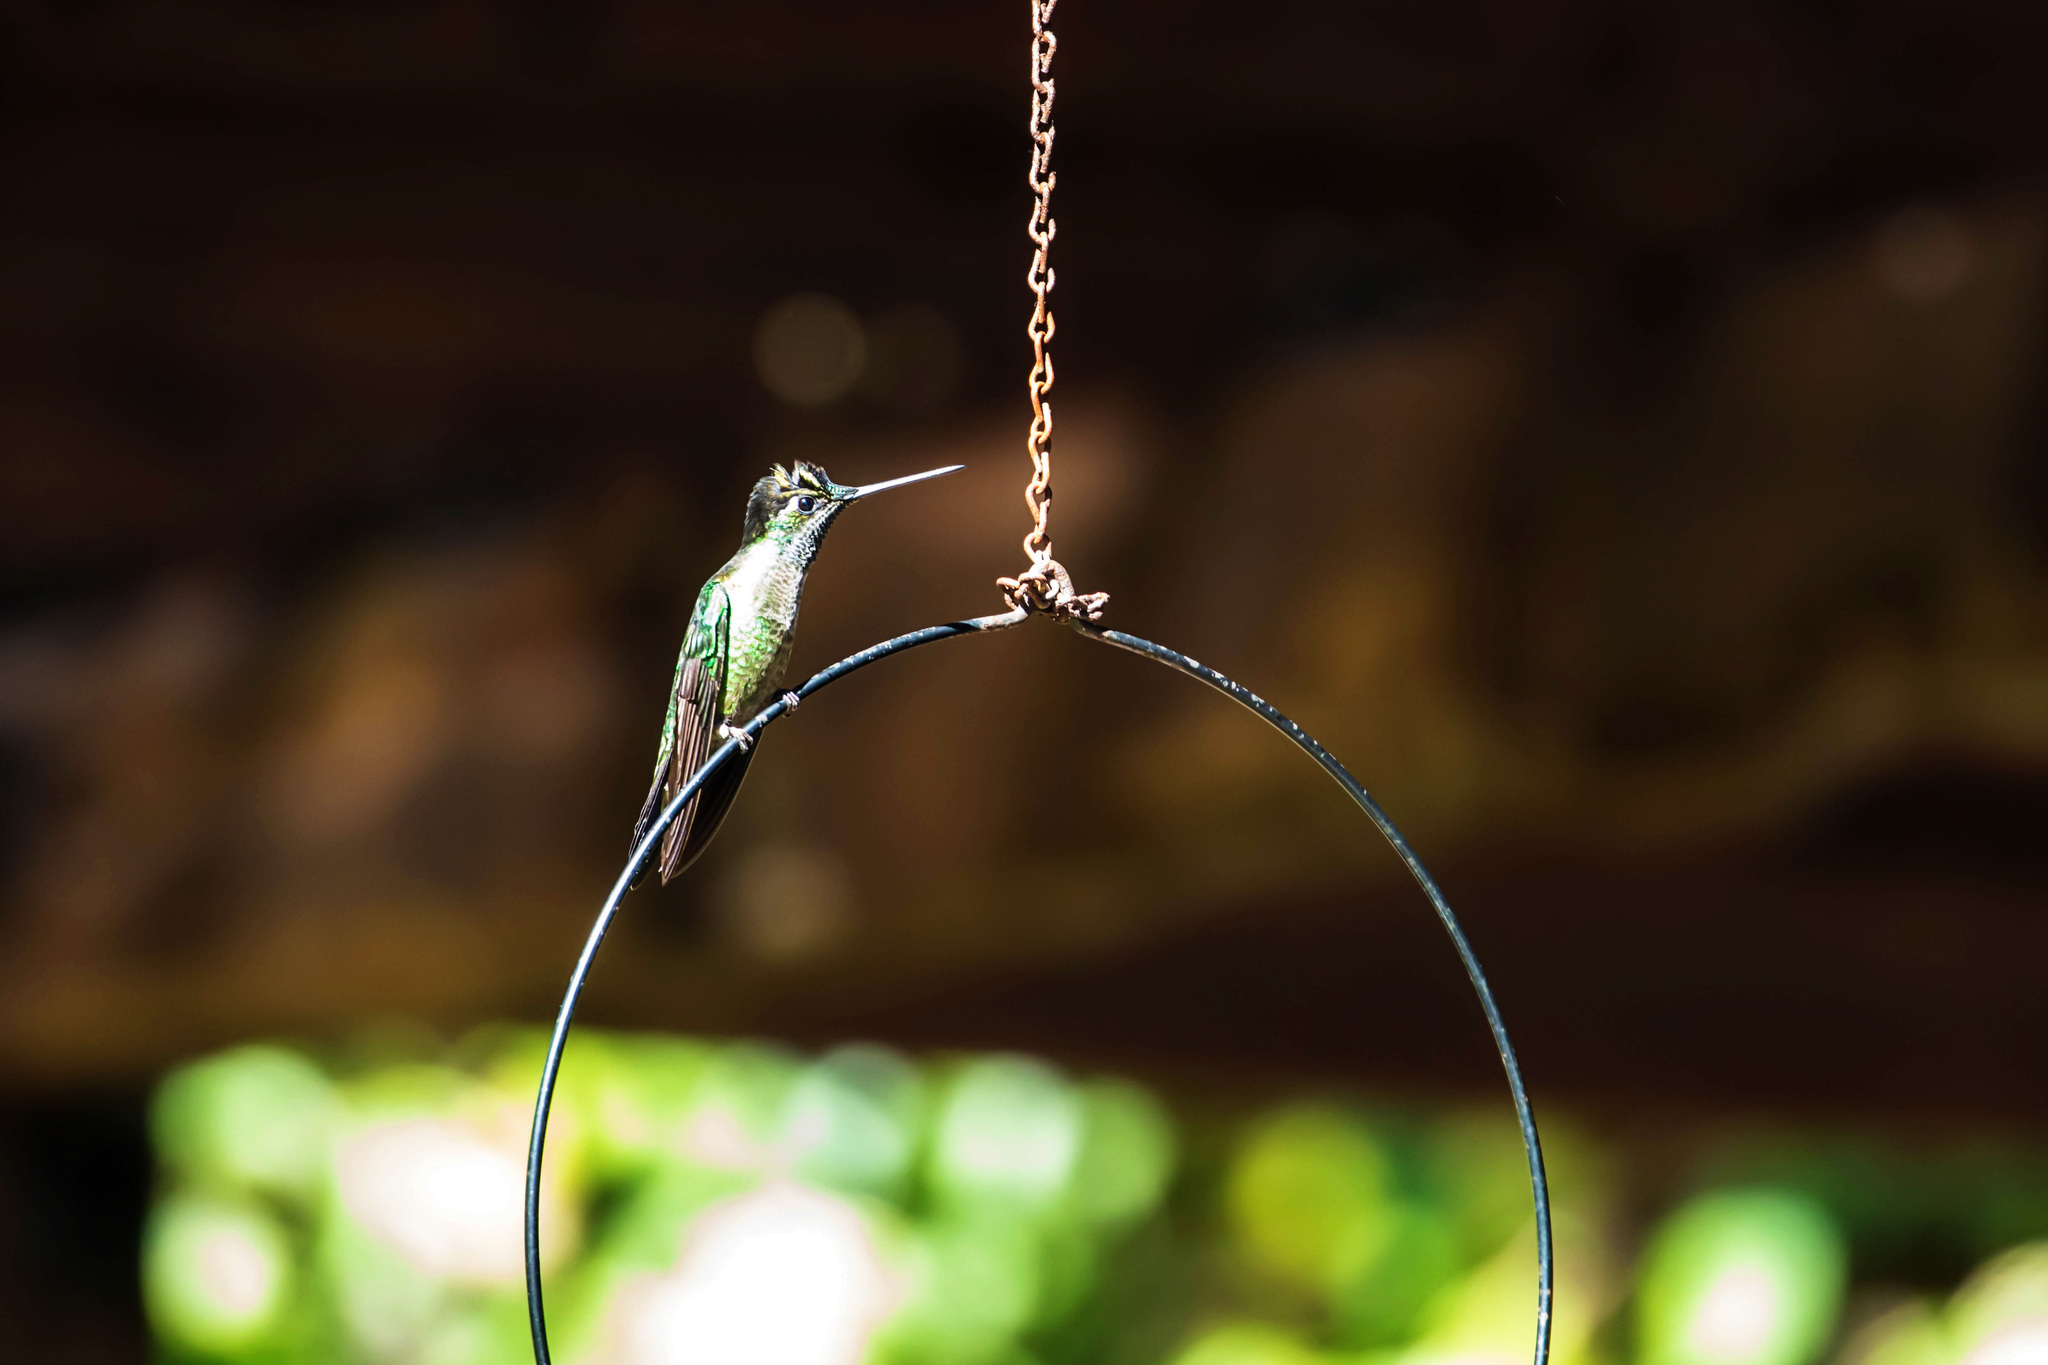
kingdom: Animalia
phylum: Chordata
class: Aves
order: Apodiformes
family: Trochilidae
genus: Lampornis
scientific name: Lampornis calolaemus
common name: Purple-throated mountain-gem
